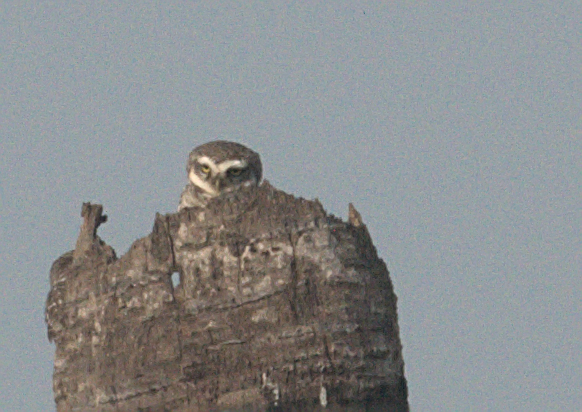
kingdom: Animalia
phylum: Chordata
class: Aves
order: Pelecaniformes
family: Ardeidae
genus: Ardeola
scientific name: Ardeola grayii
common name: Indian pond heron
